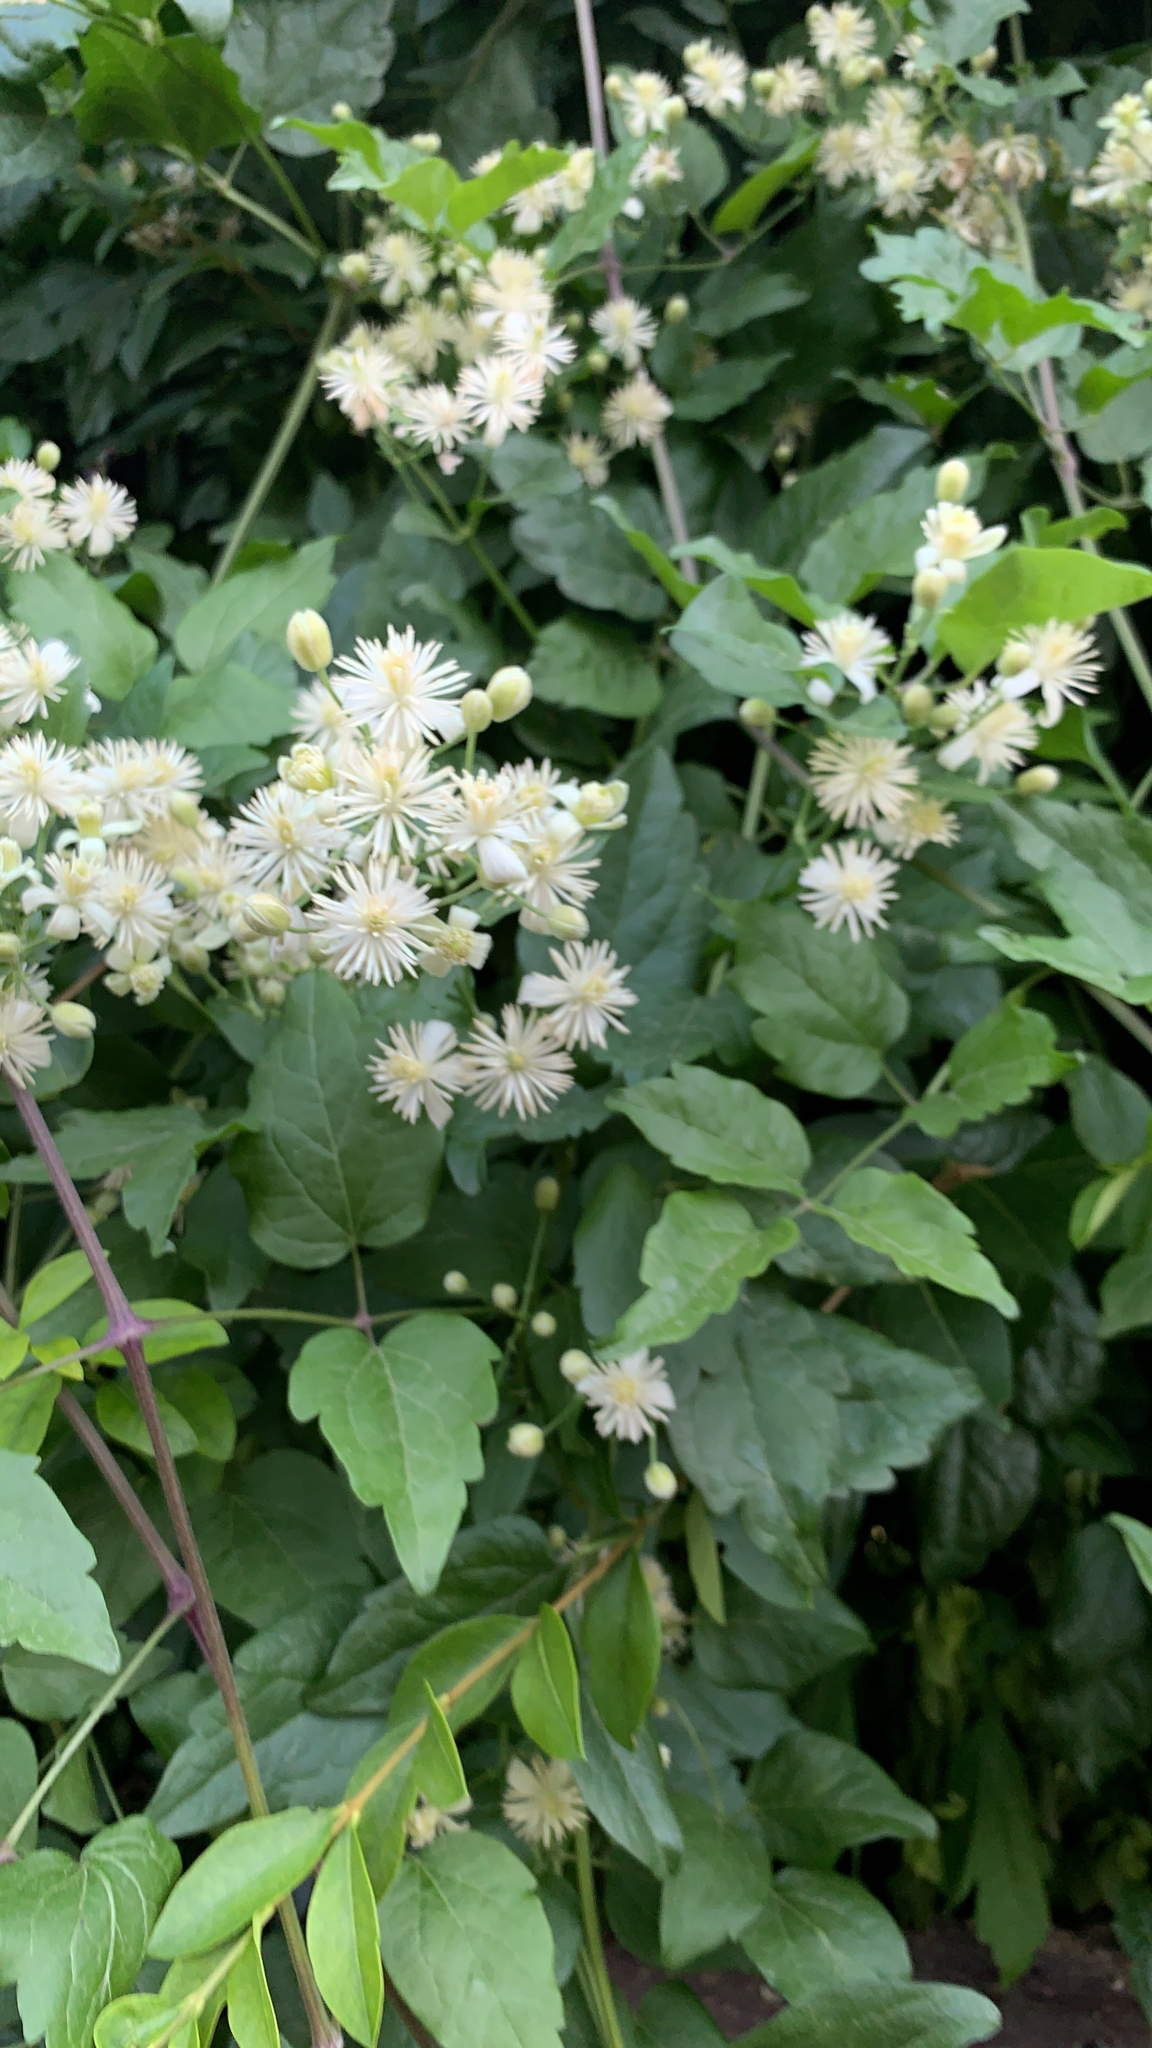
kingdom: Plantae
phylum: Tracheophyta
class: Magnoliopsida
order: Ranunculales
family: Ranunculaceae
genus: Clematis
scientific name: Clematis vitalba
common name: Evergreen clematis
